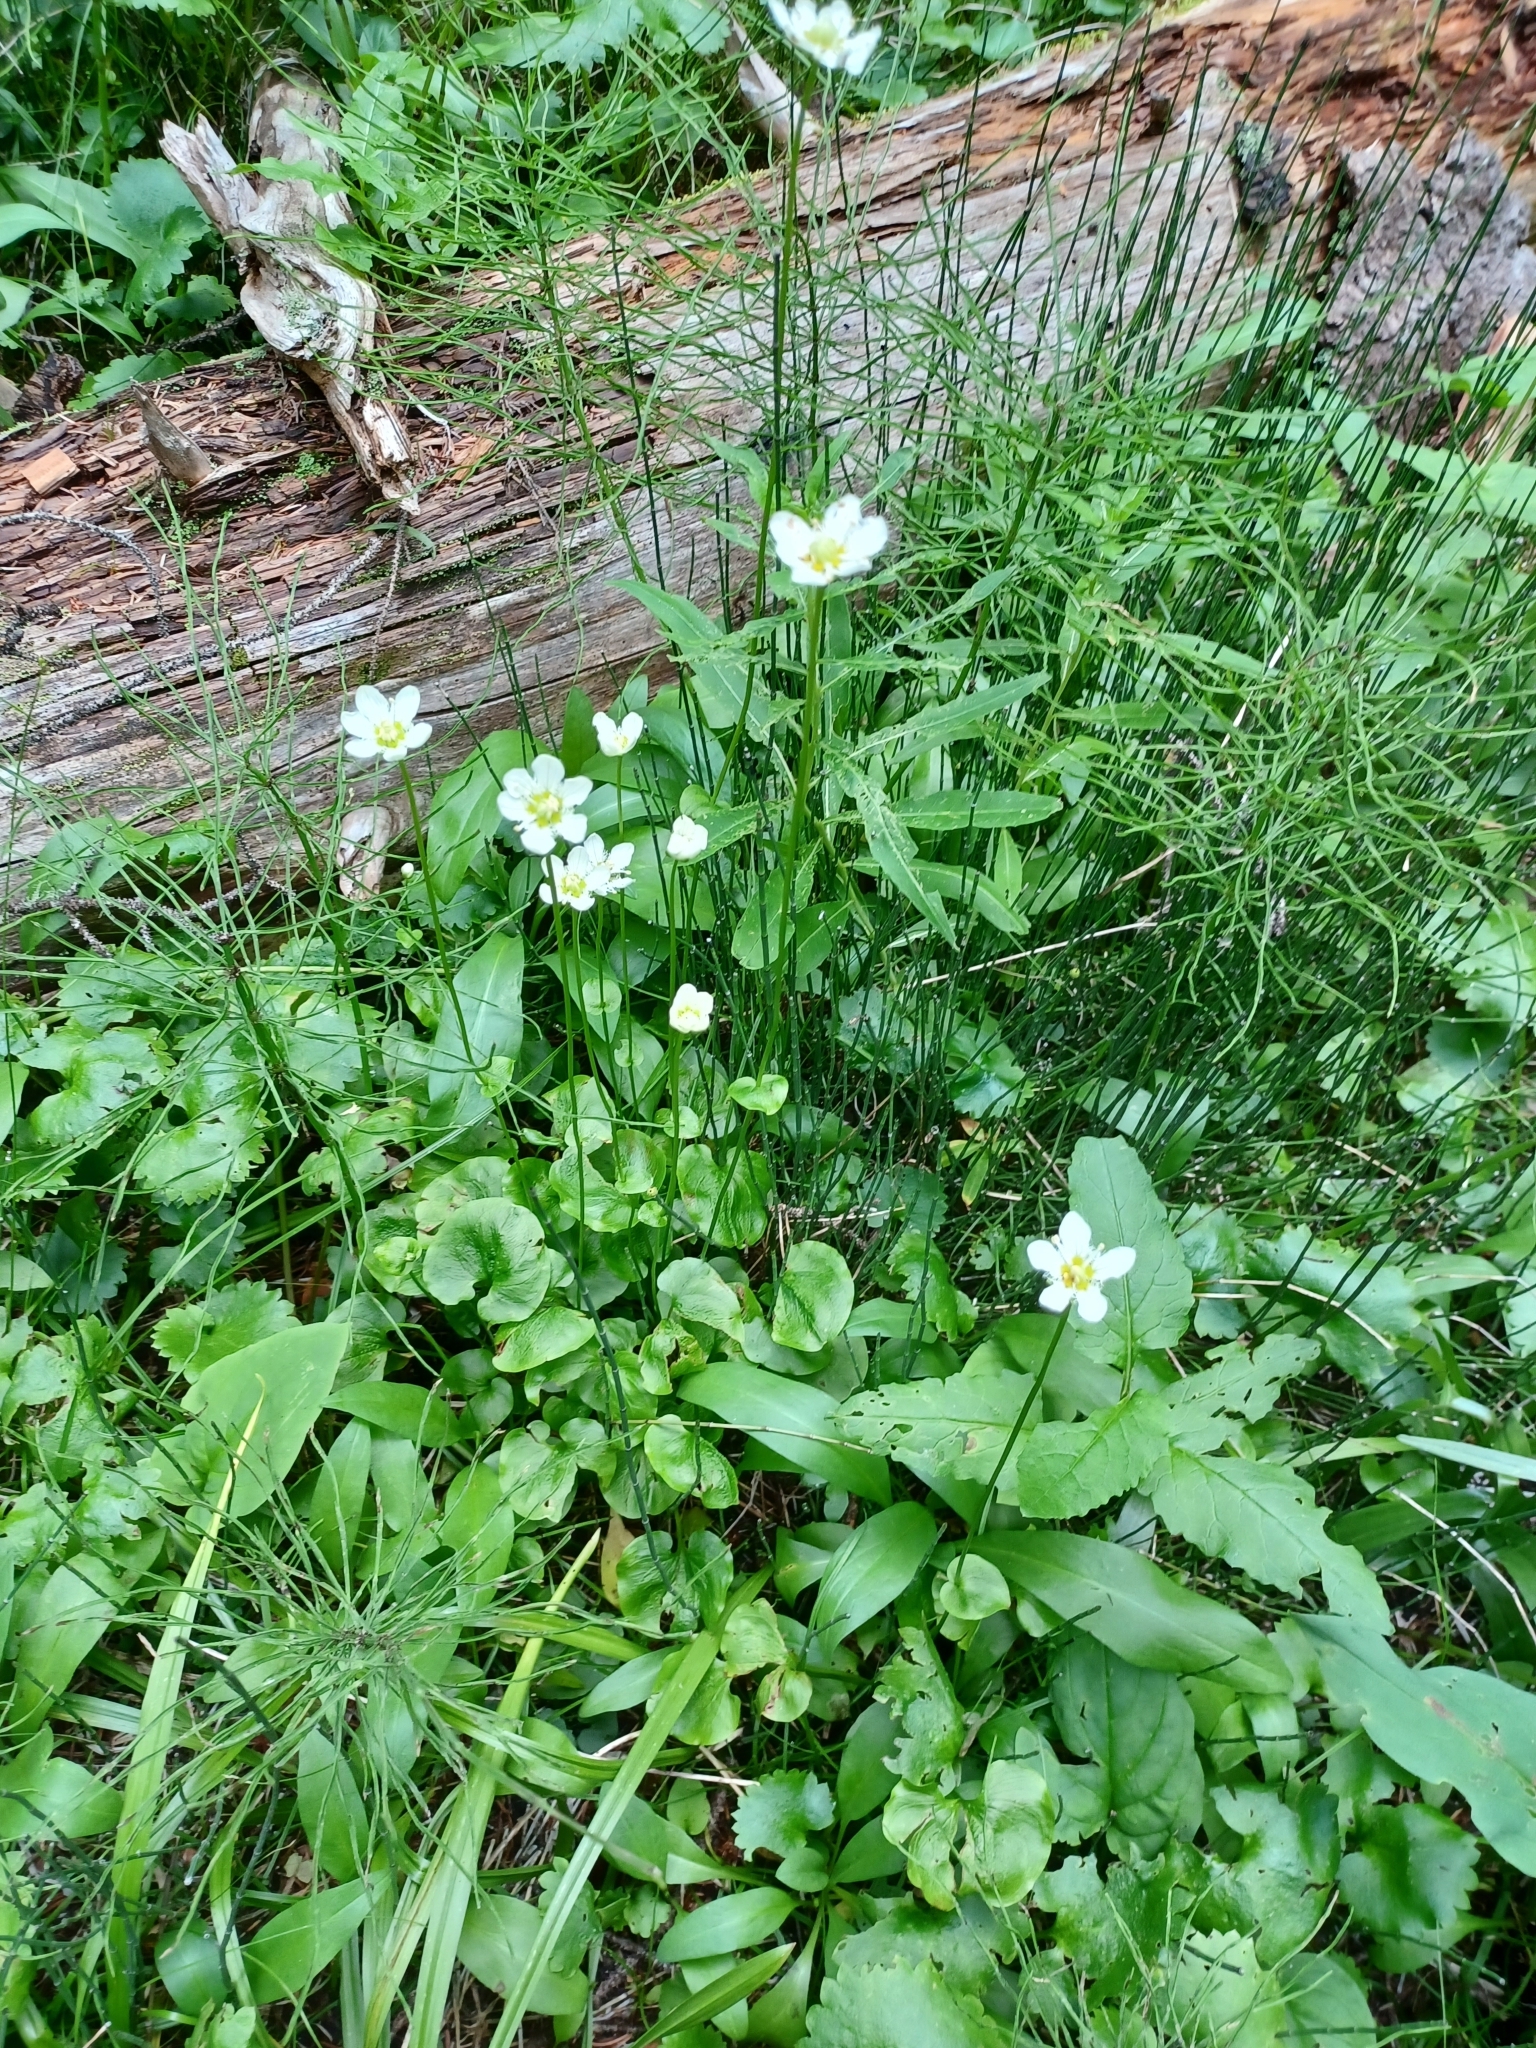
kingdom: Plantae
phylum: Tracheophyta
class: Magnoliopsida
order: Celastrales
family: Parnassiaceae
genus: Parnassia
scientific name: Parnassia fimbriata
